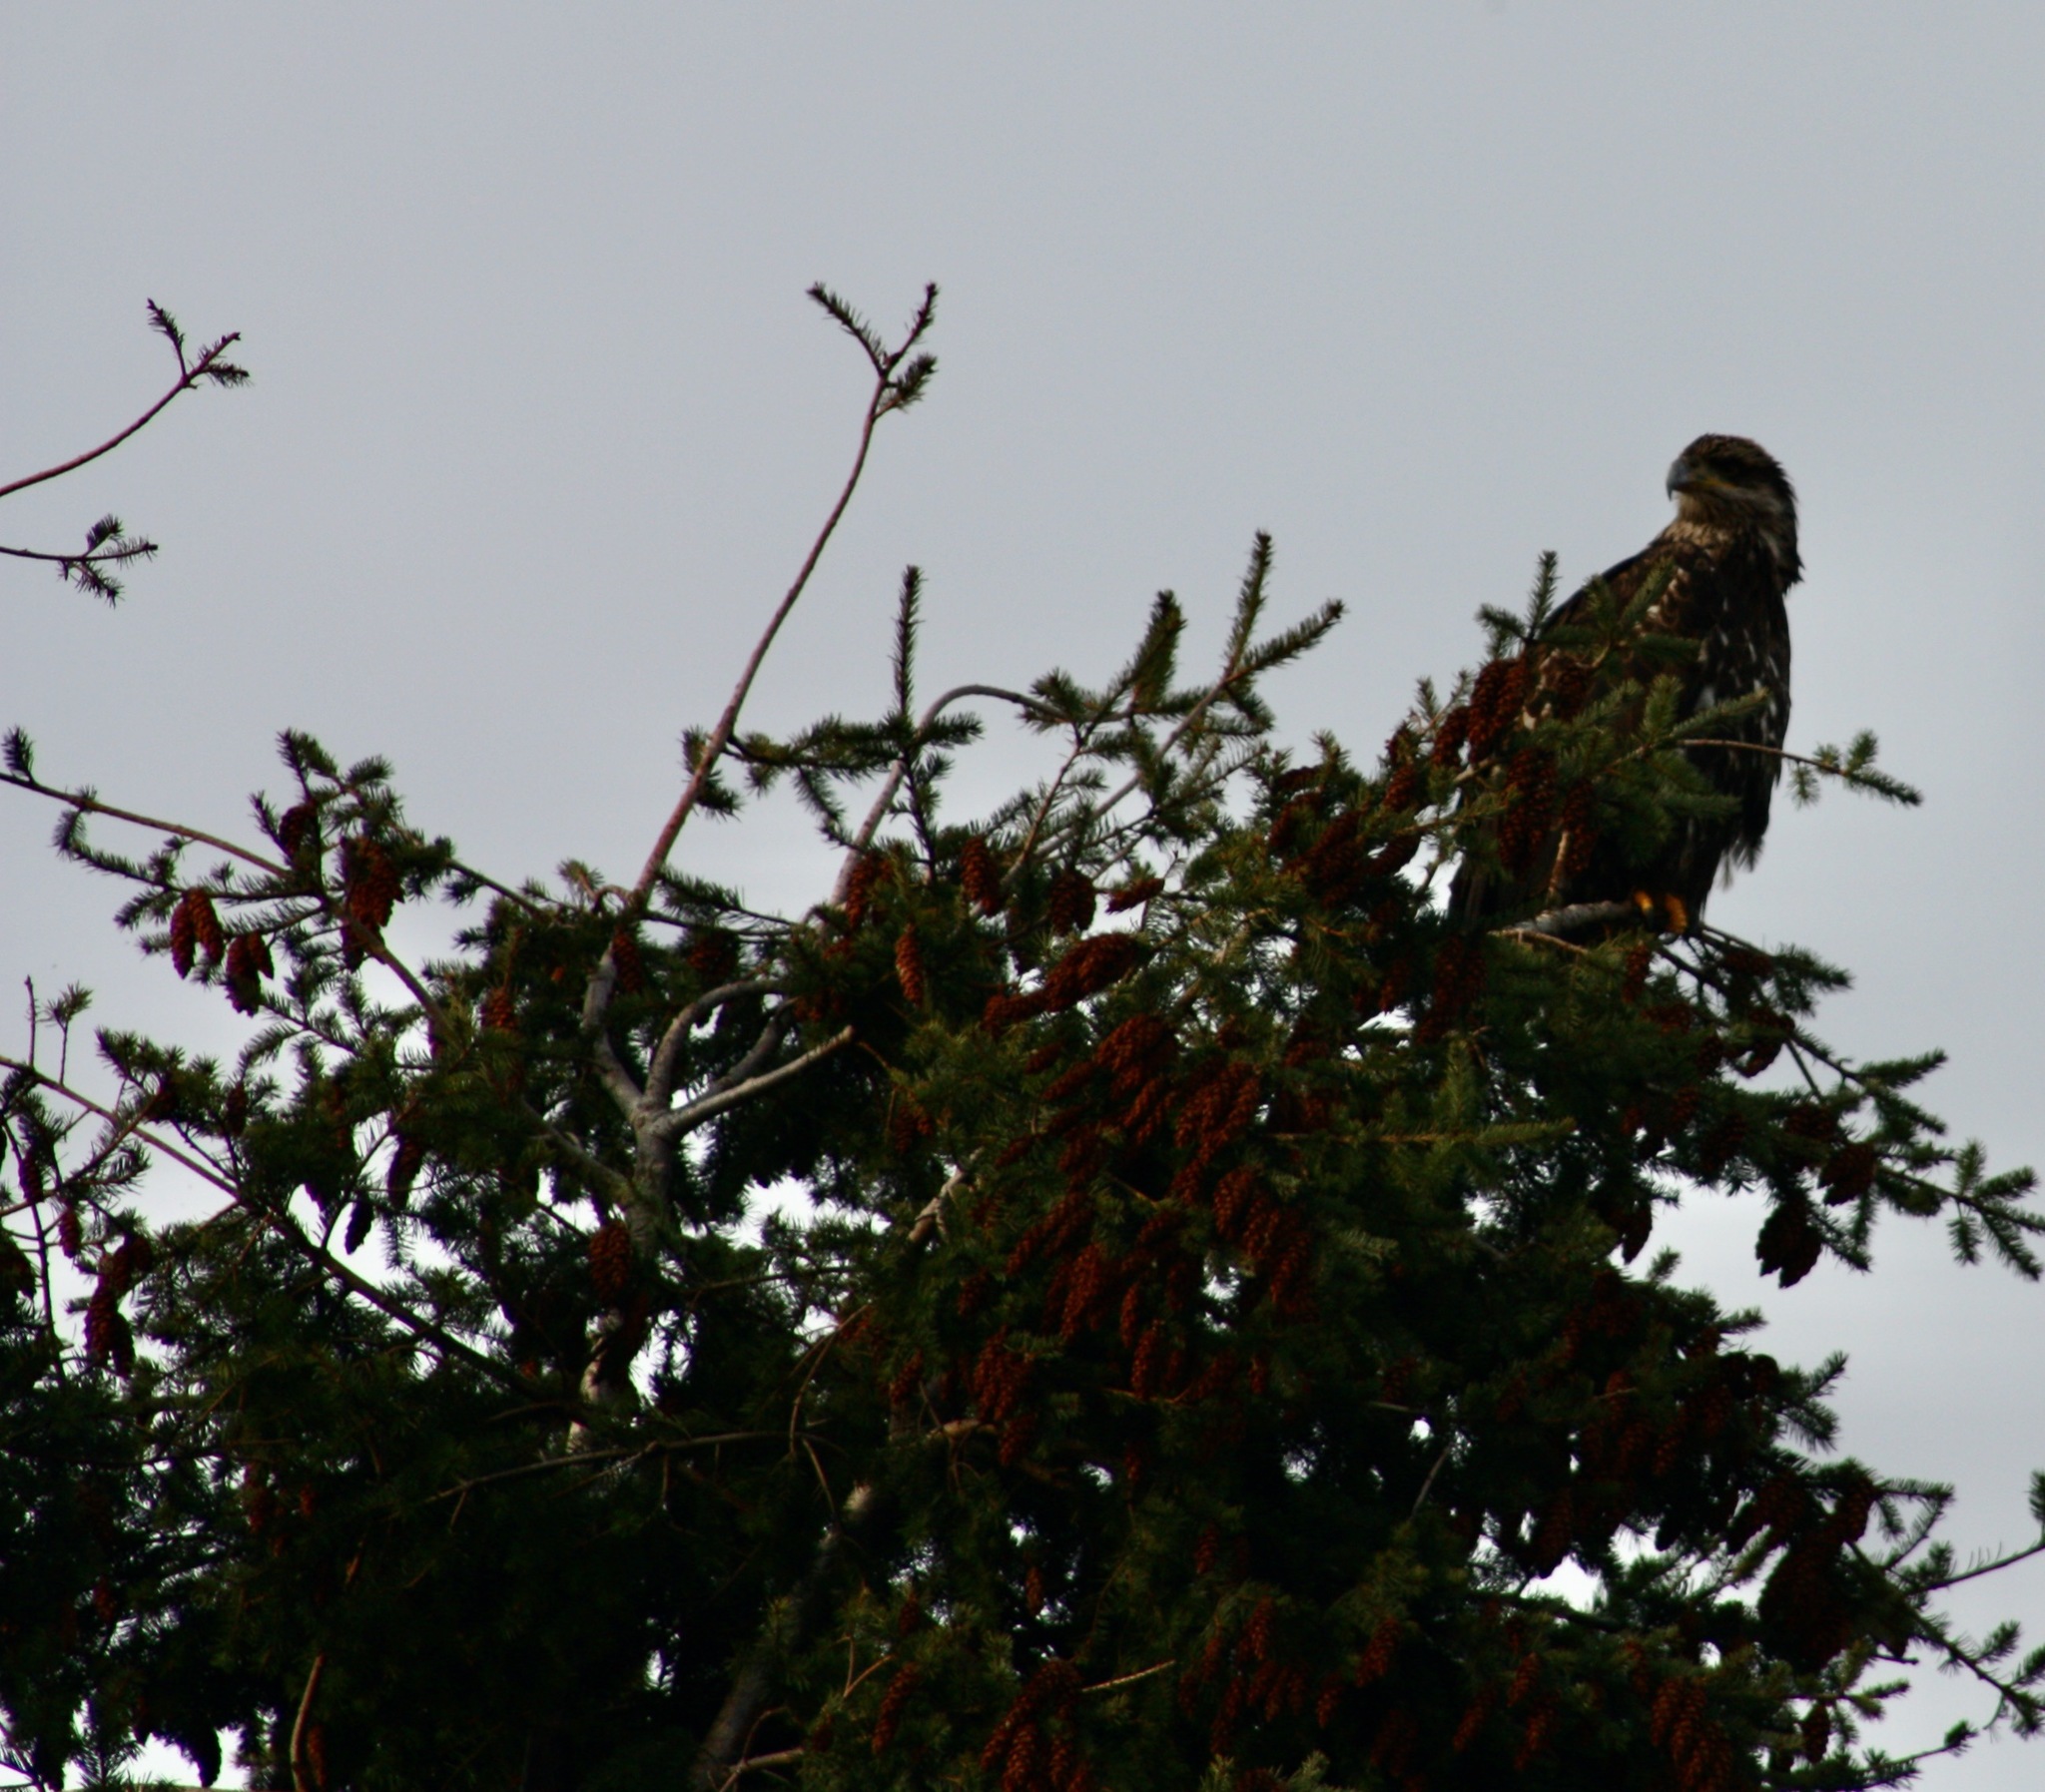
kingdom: Animalia
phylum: Chordata
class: Aves
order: Accipitriformes
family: Accipitridae
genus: Haliaeetus
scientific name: Haliaeetus leucocephalus
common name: Bald eagle
